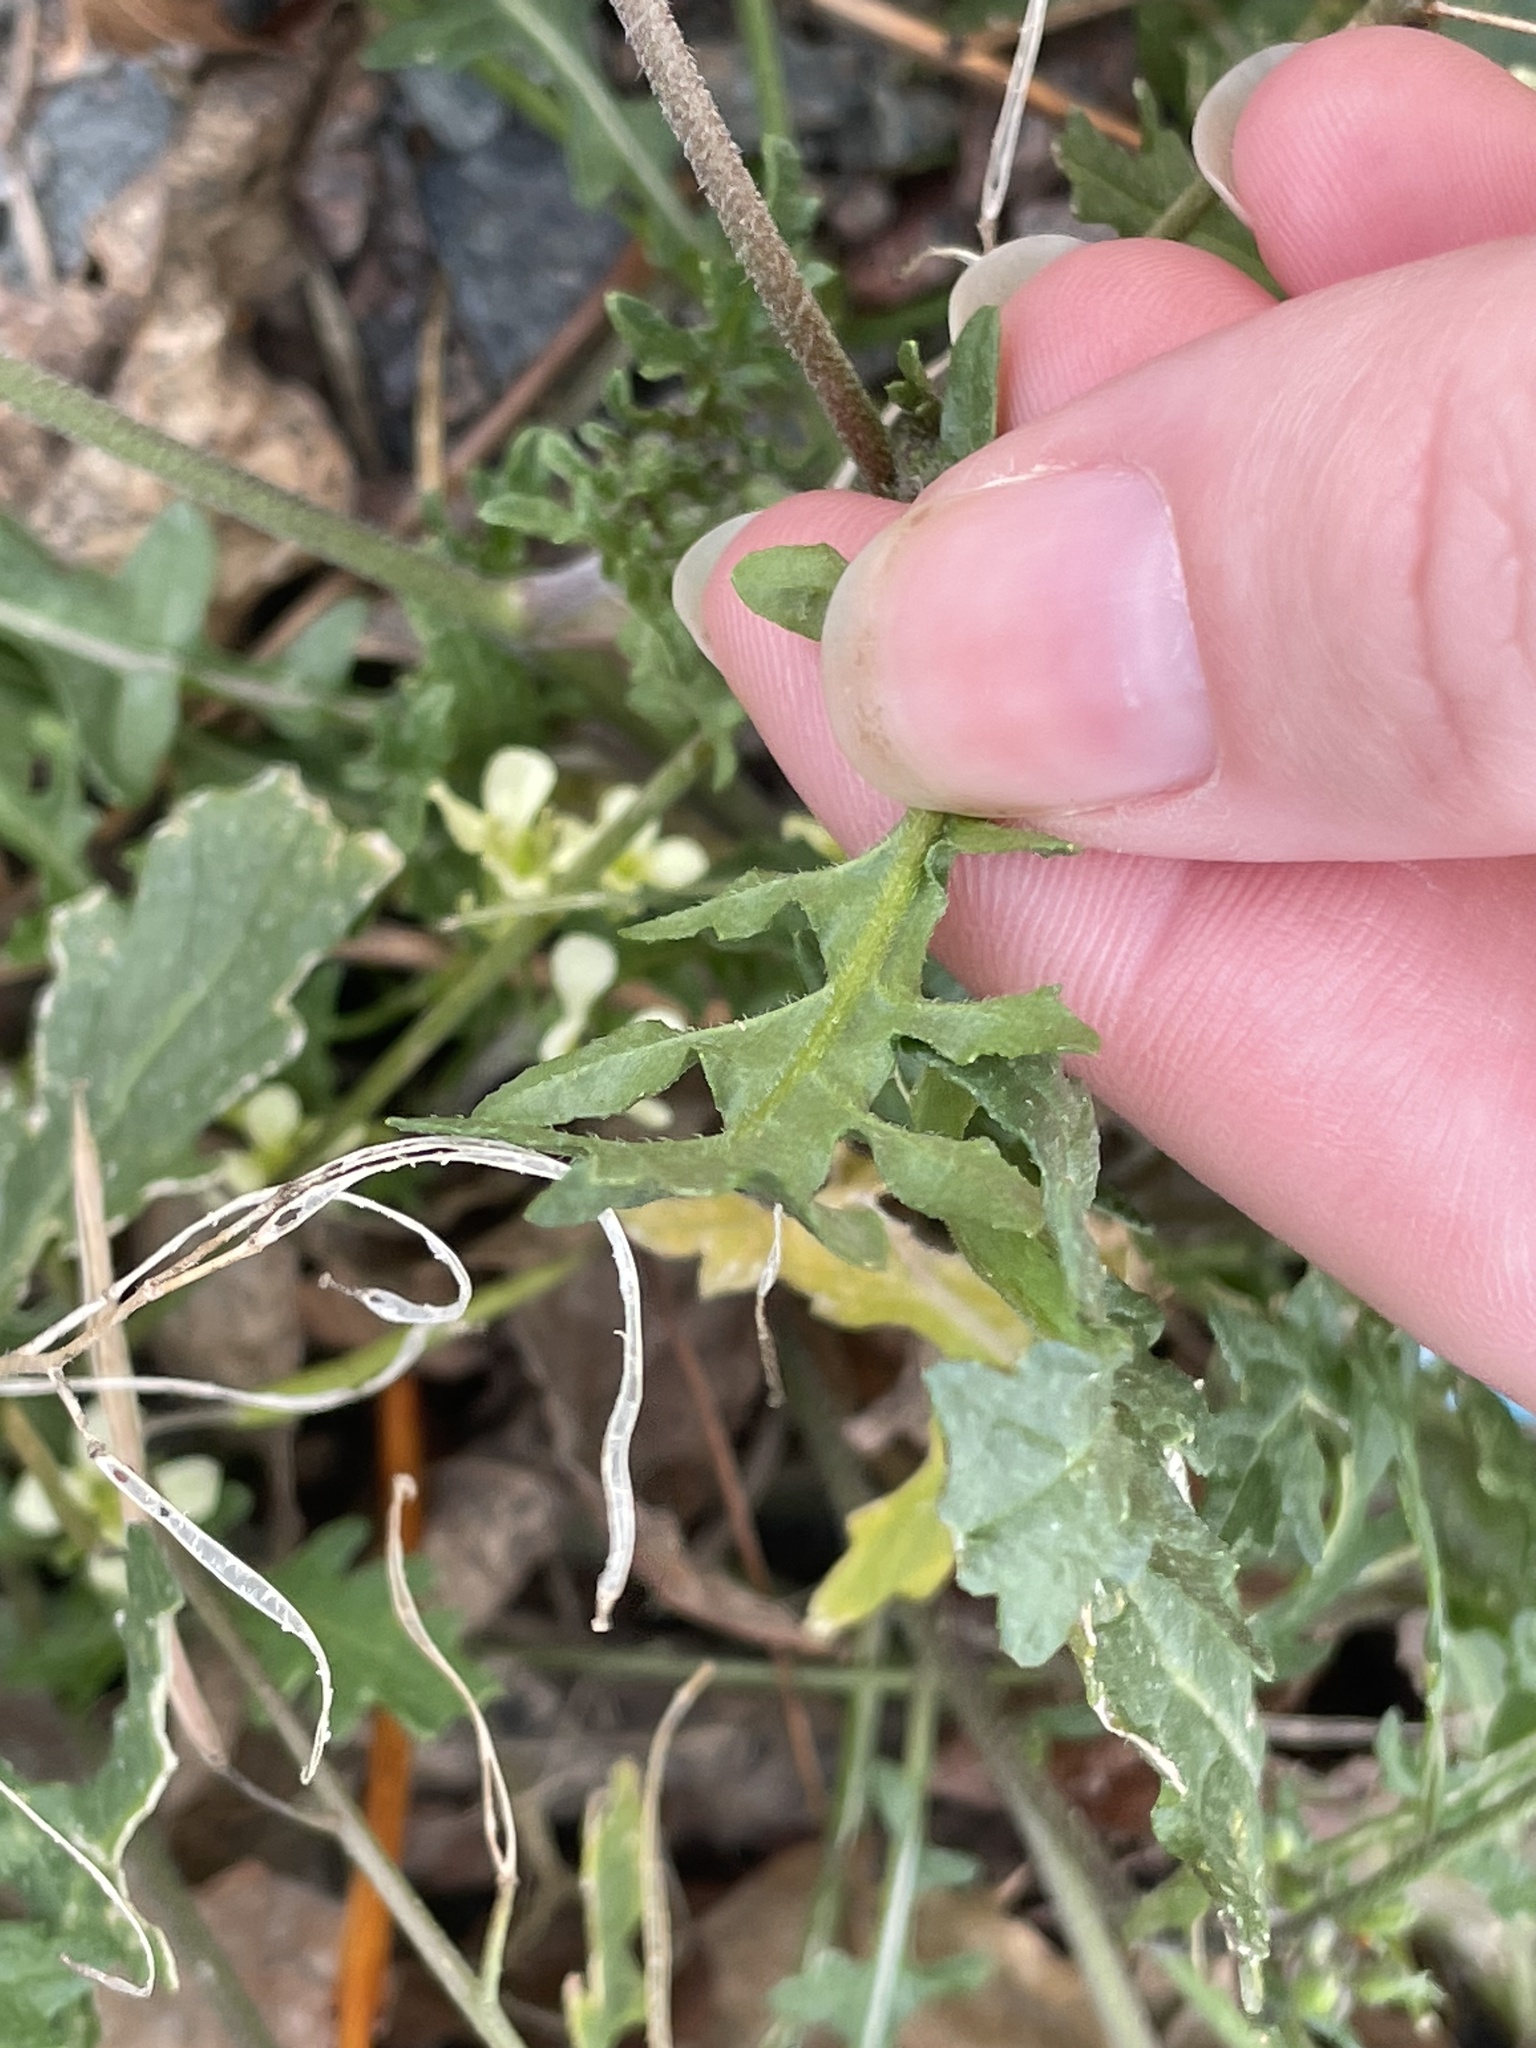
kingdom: Plantae
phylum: Tracheophyta
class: Magnoliopsida
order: Brassicales
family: Brassicaceae
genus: Erucastrum
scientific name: Erucastrum gallicum
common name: Hairy rocket
